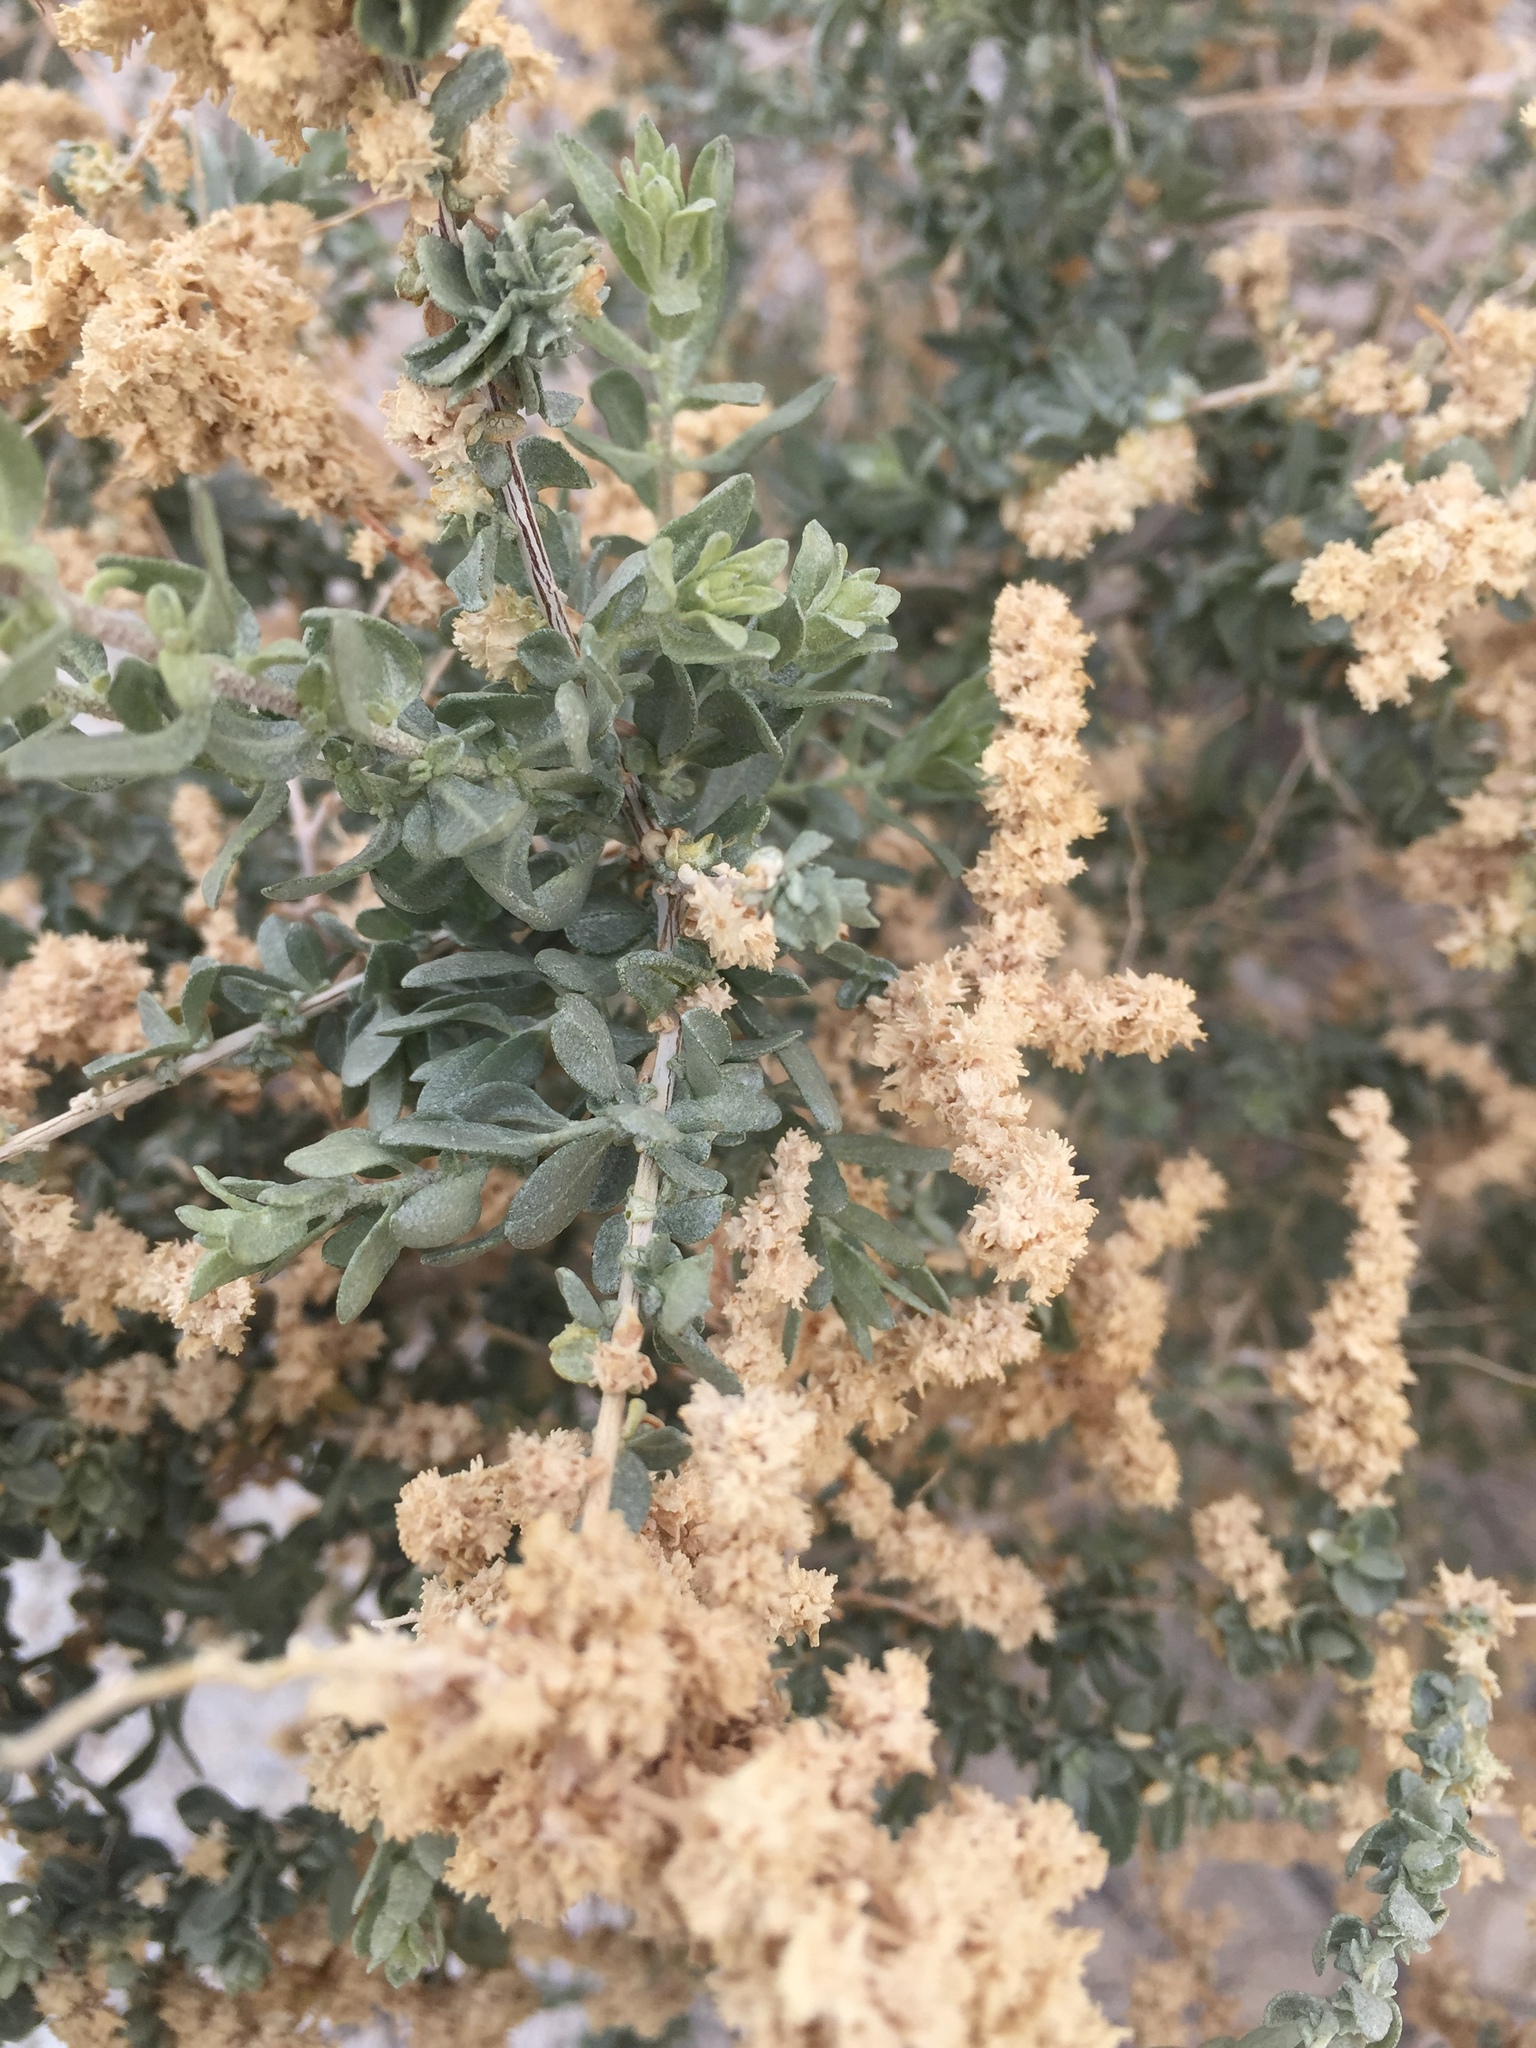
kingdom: Plantae
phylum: Tracheophyta
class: Magnoliopsida
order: Caryophyllales
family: Amaranthaceae
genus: Atriplex
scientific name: Atriplex polycarpa
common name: Desert saltbush
